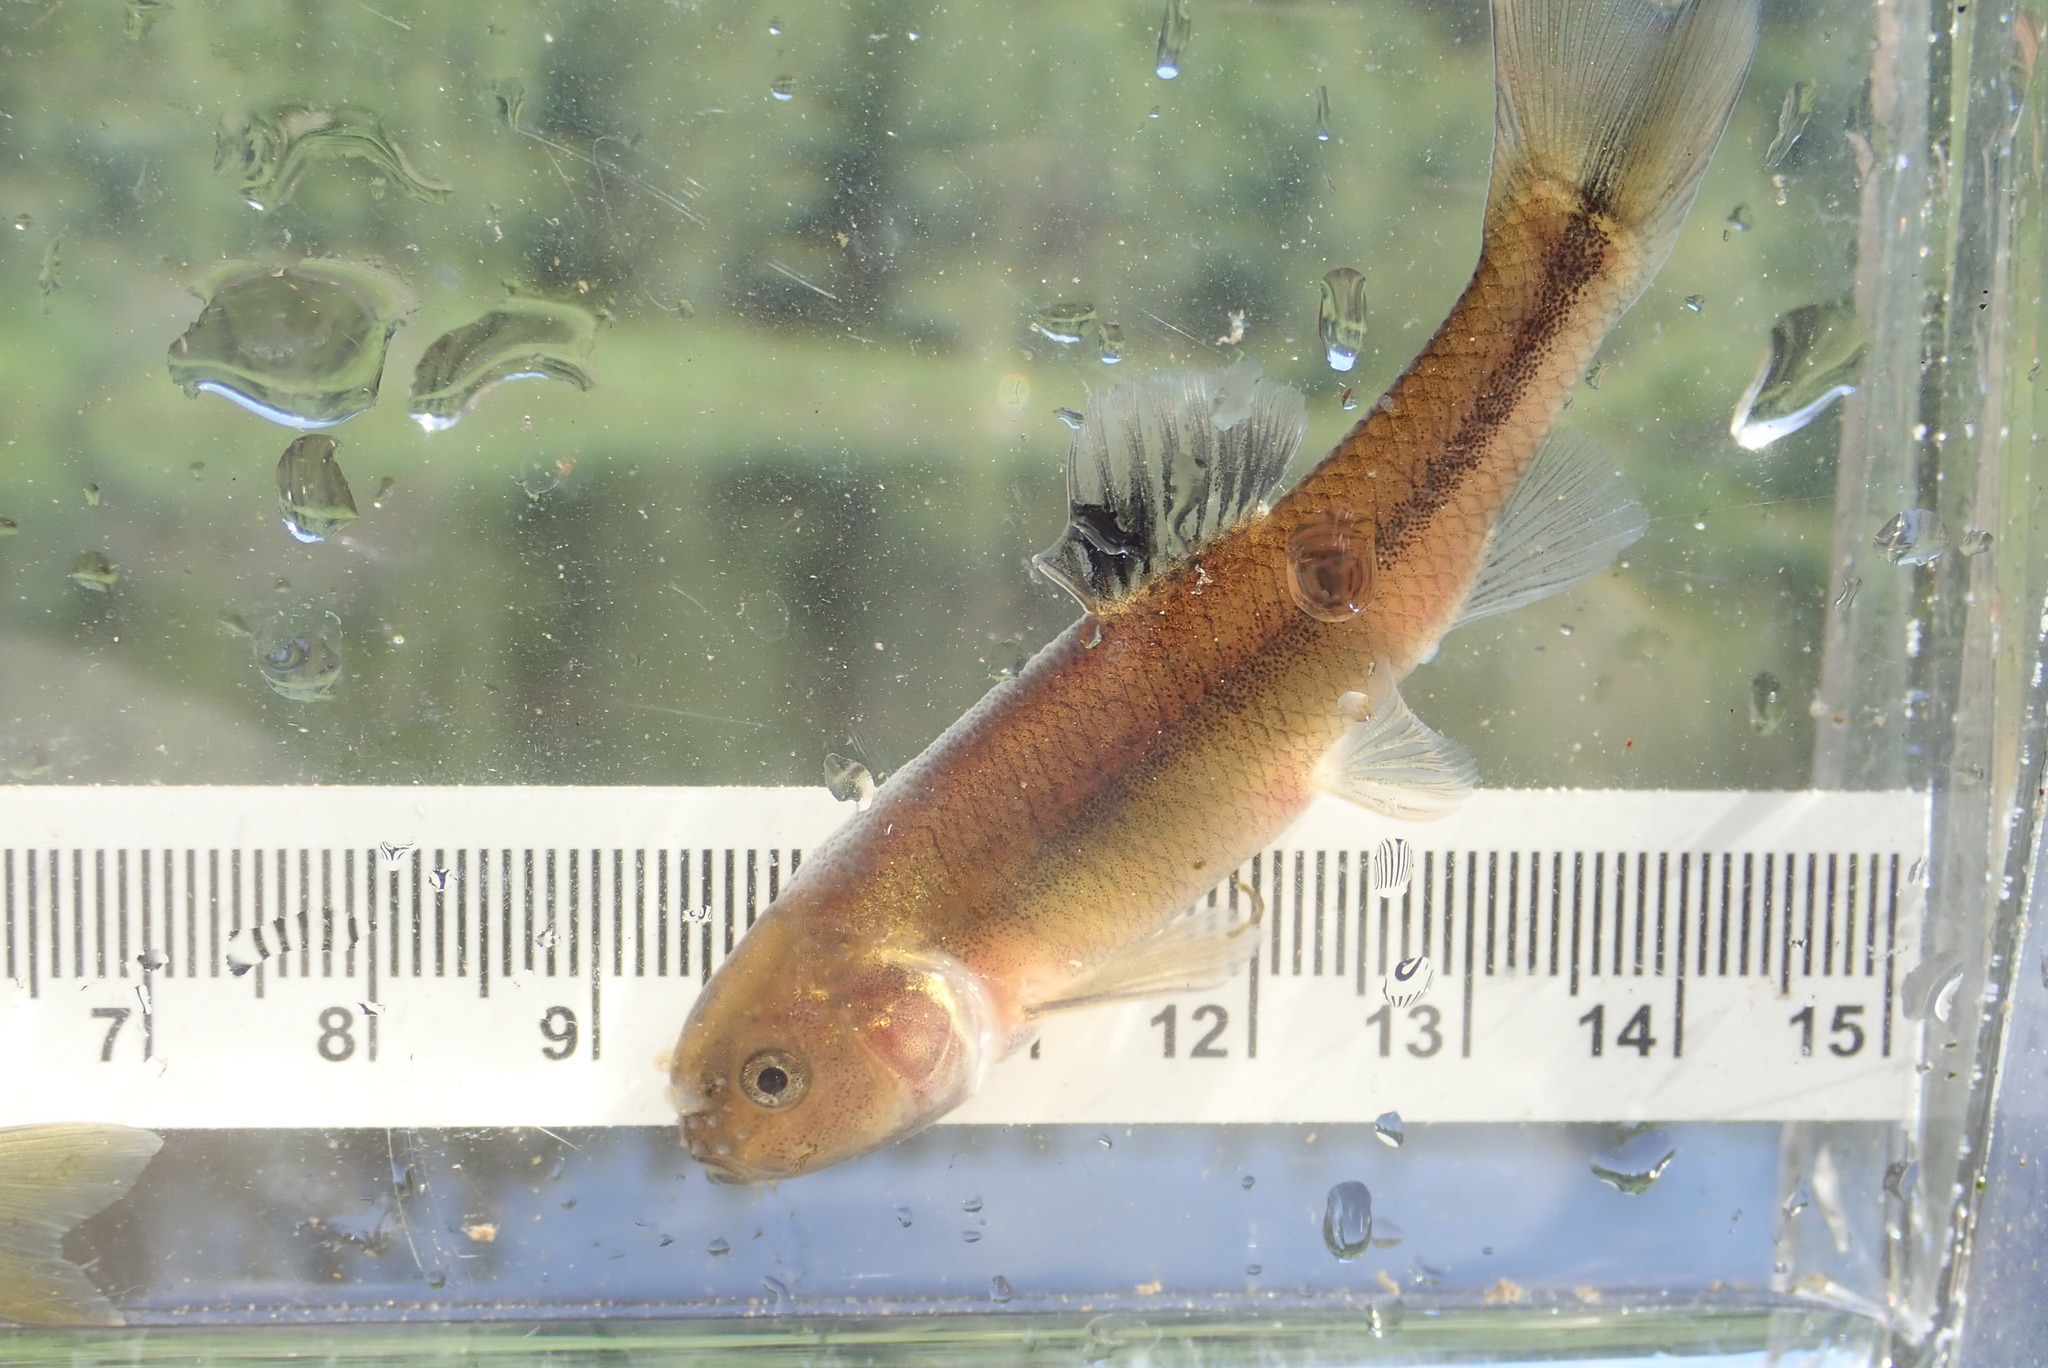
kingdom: Animalia
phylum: Chordata
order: Cypriniformes
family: Cyprinidae
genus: Pimephales
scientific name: Pimephales promelas
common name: Fathead minnow
